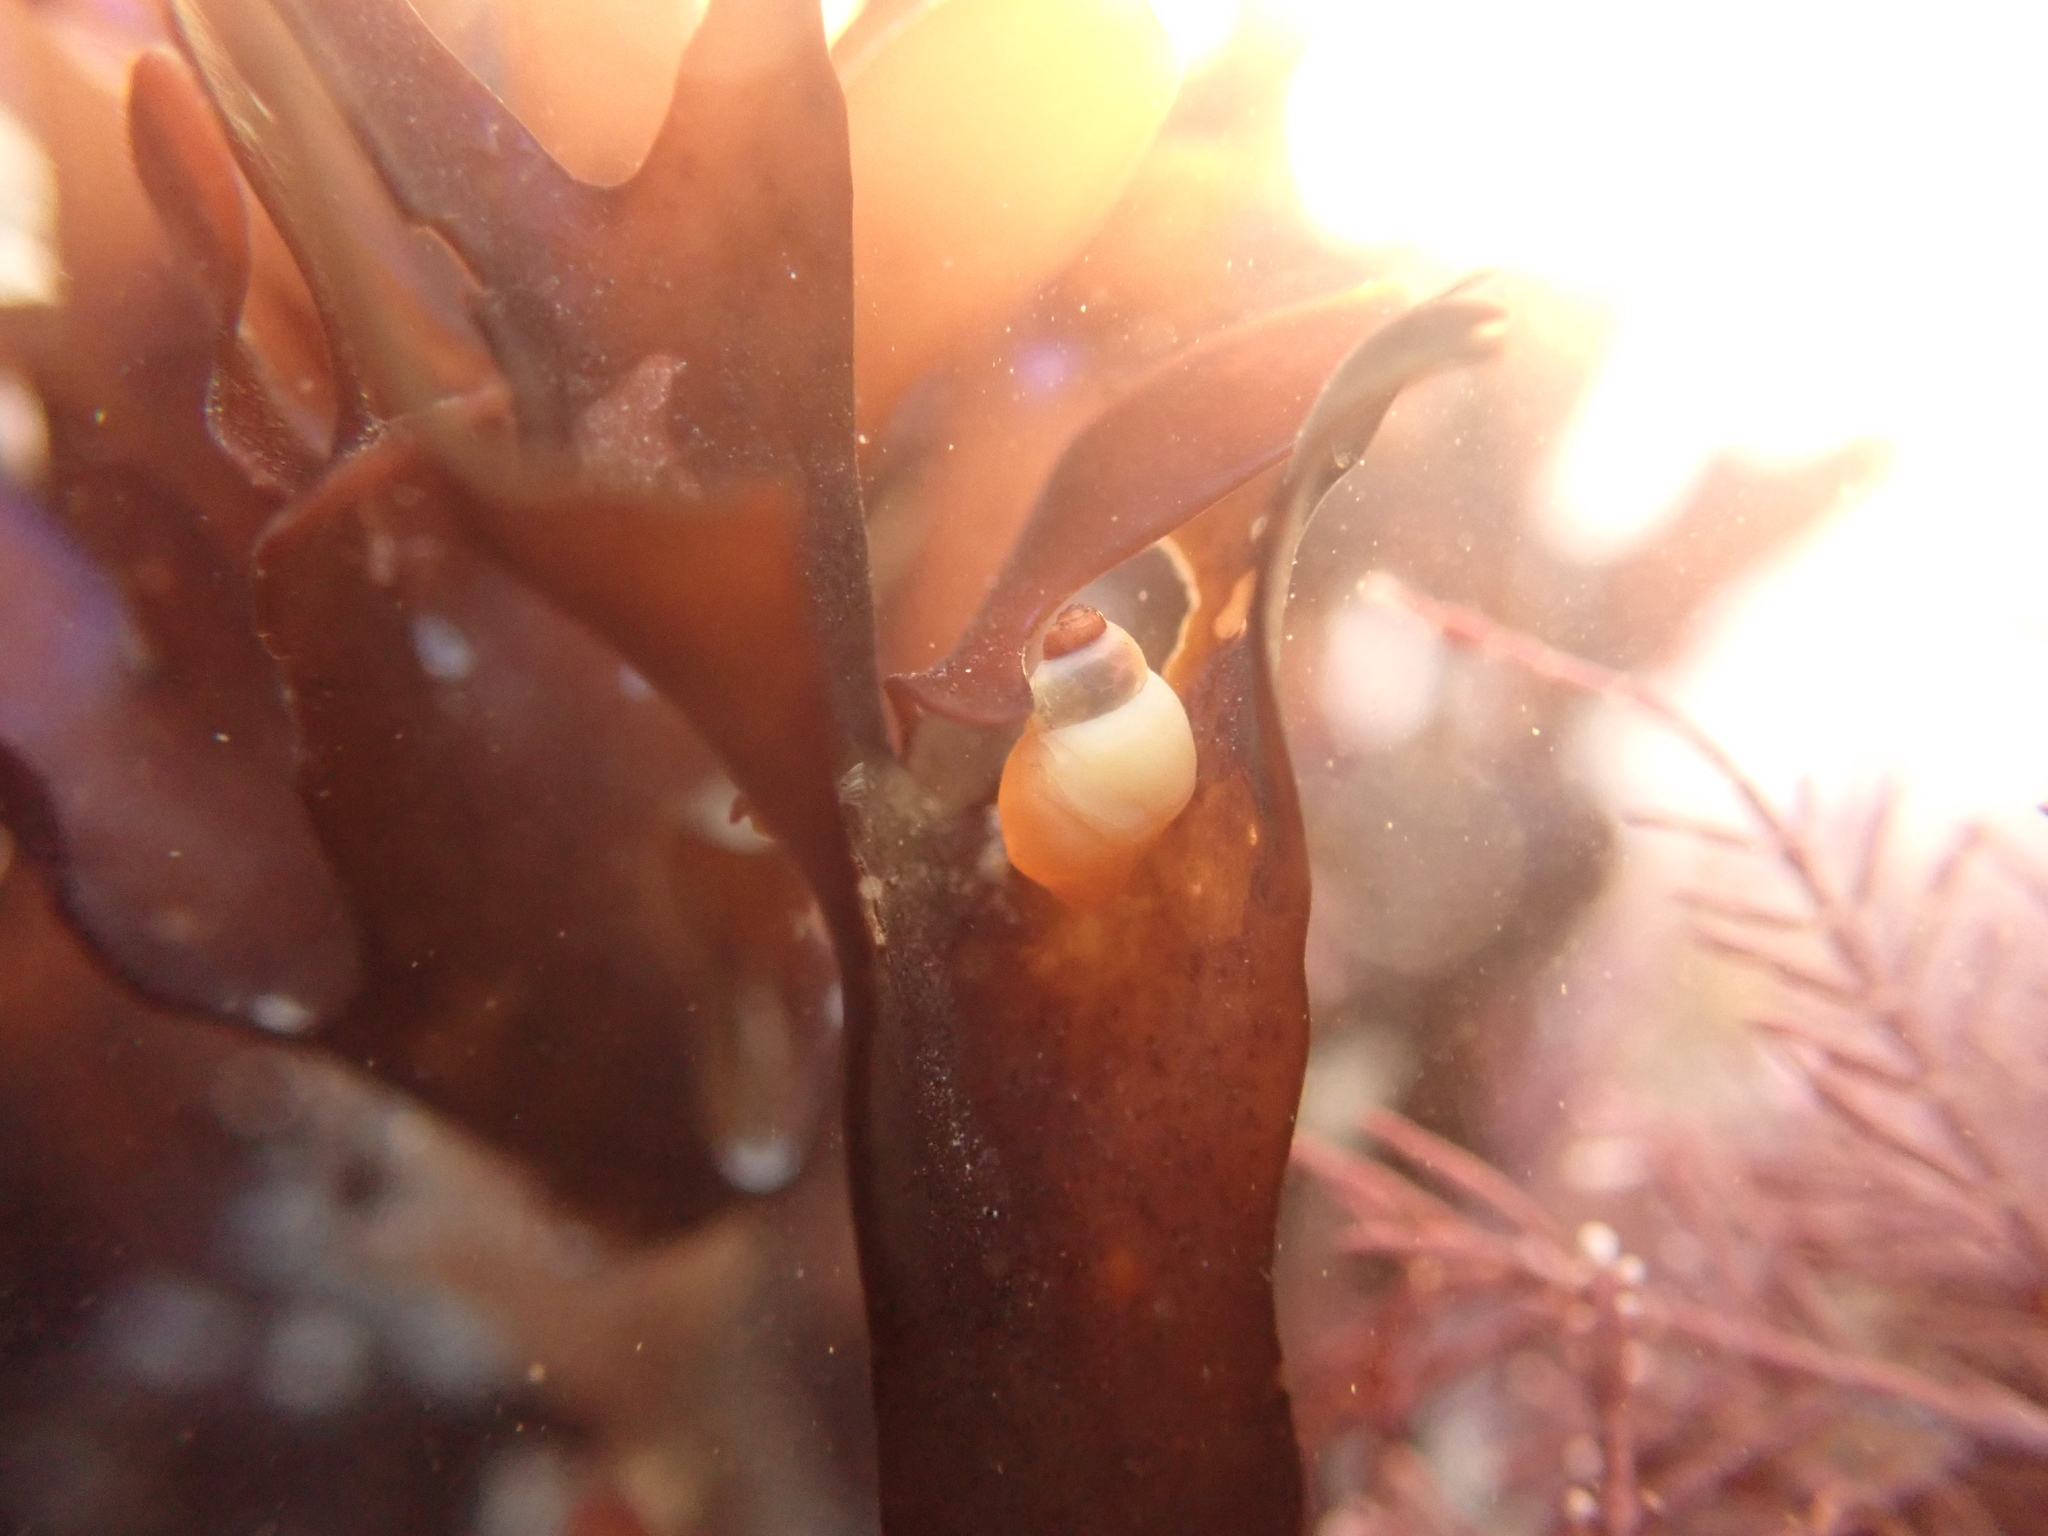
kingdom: Animalia
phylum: Mollusca
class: Gastropoda
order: Littorinimorpha
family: Littorinidae
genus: Lacuna
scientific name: Lacuna vincta
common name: Banded chink shell
